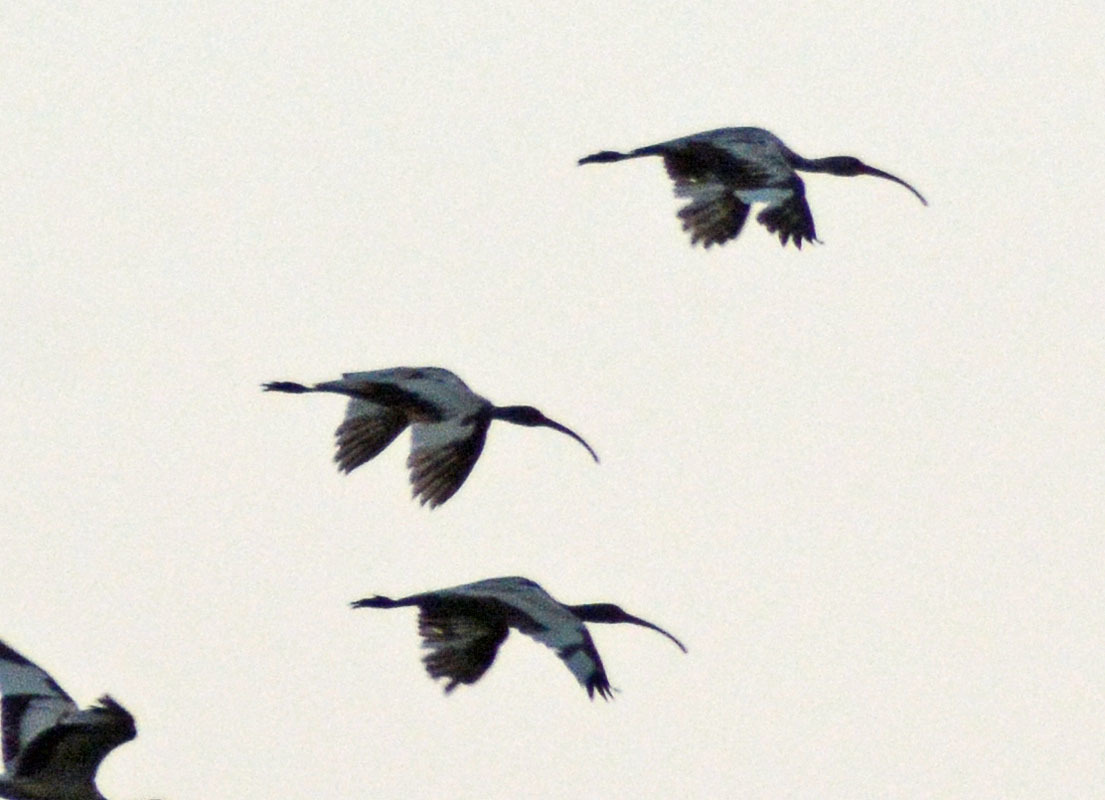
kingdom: Animalia
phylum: Chordata
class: Aves
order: Pelecaniformes
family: Threskiornithidae
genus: Eudocimus
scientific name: Eudocimus albus
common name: White ibis
